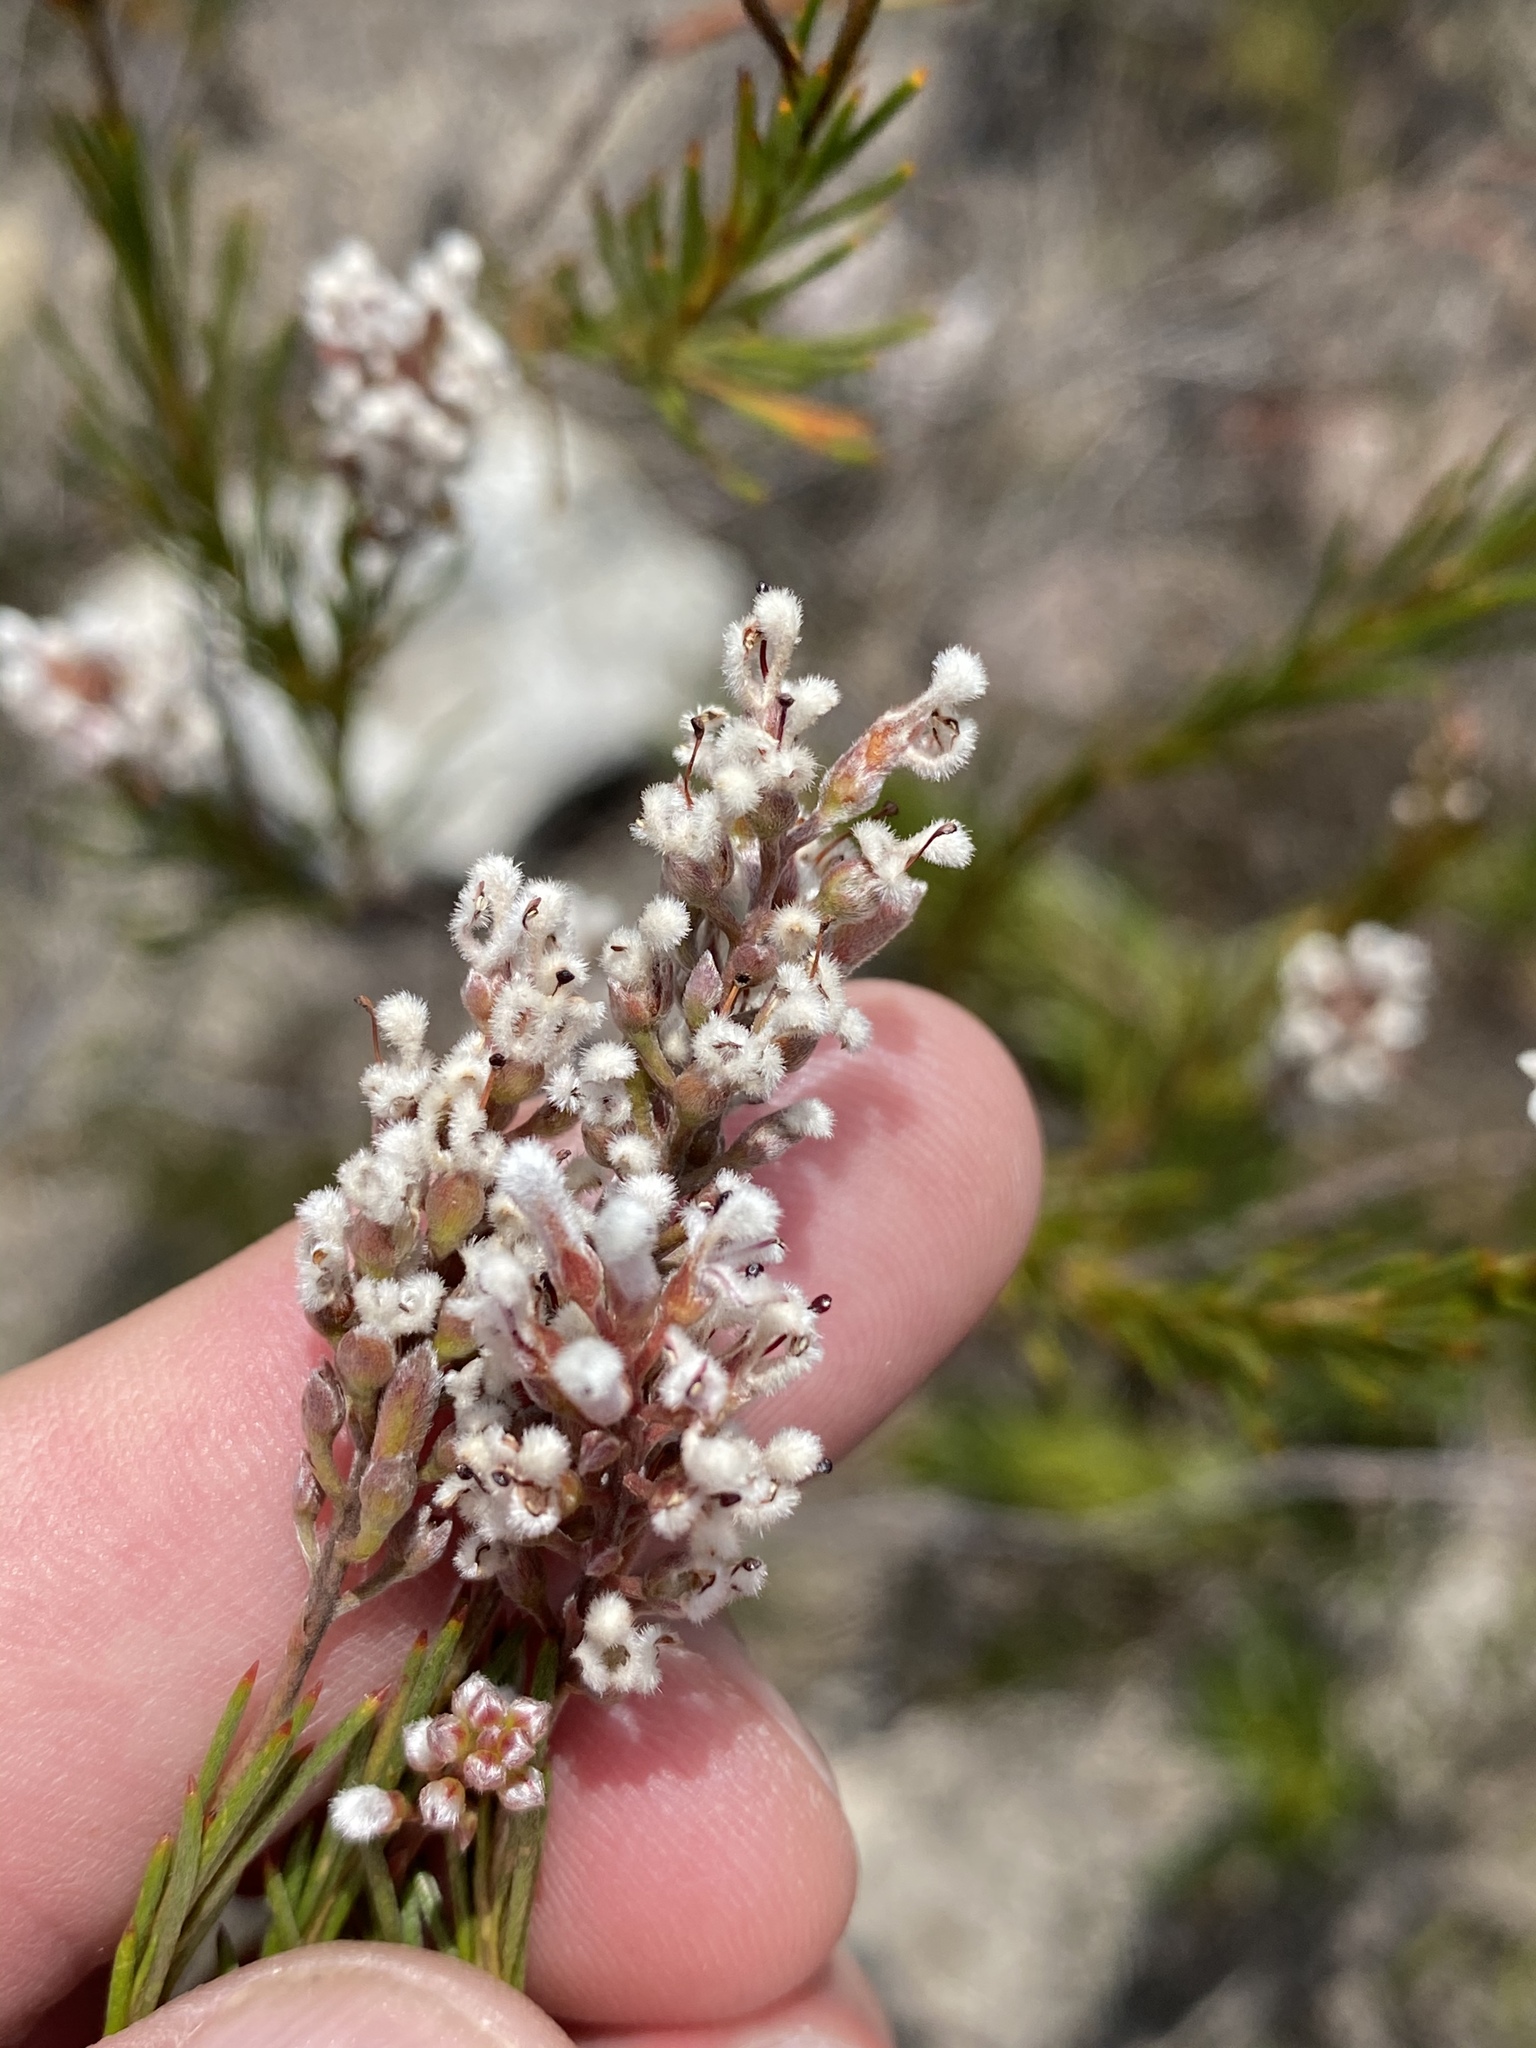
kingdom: Plantae
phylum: Tracheophyta
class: Magnoliopsida
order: Proteales
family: Proteaceae
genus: Spatalla
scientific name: Spatalla racemosa
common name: Lax-stalked spoon
